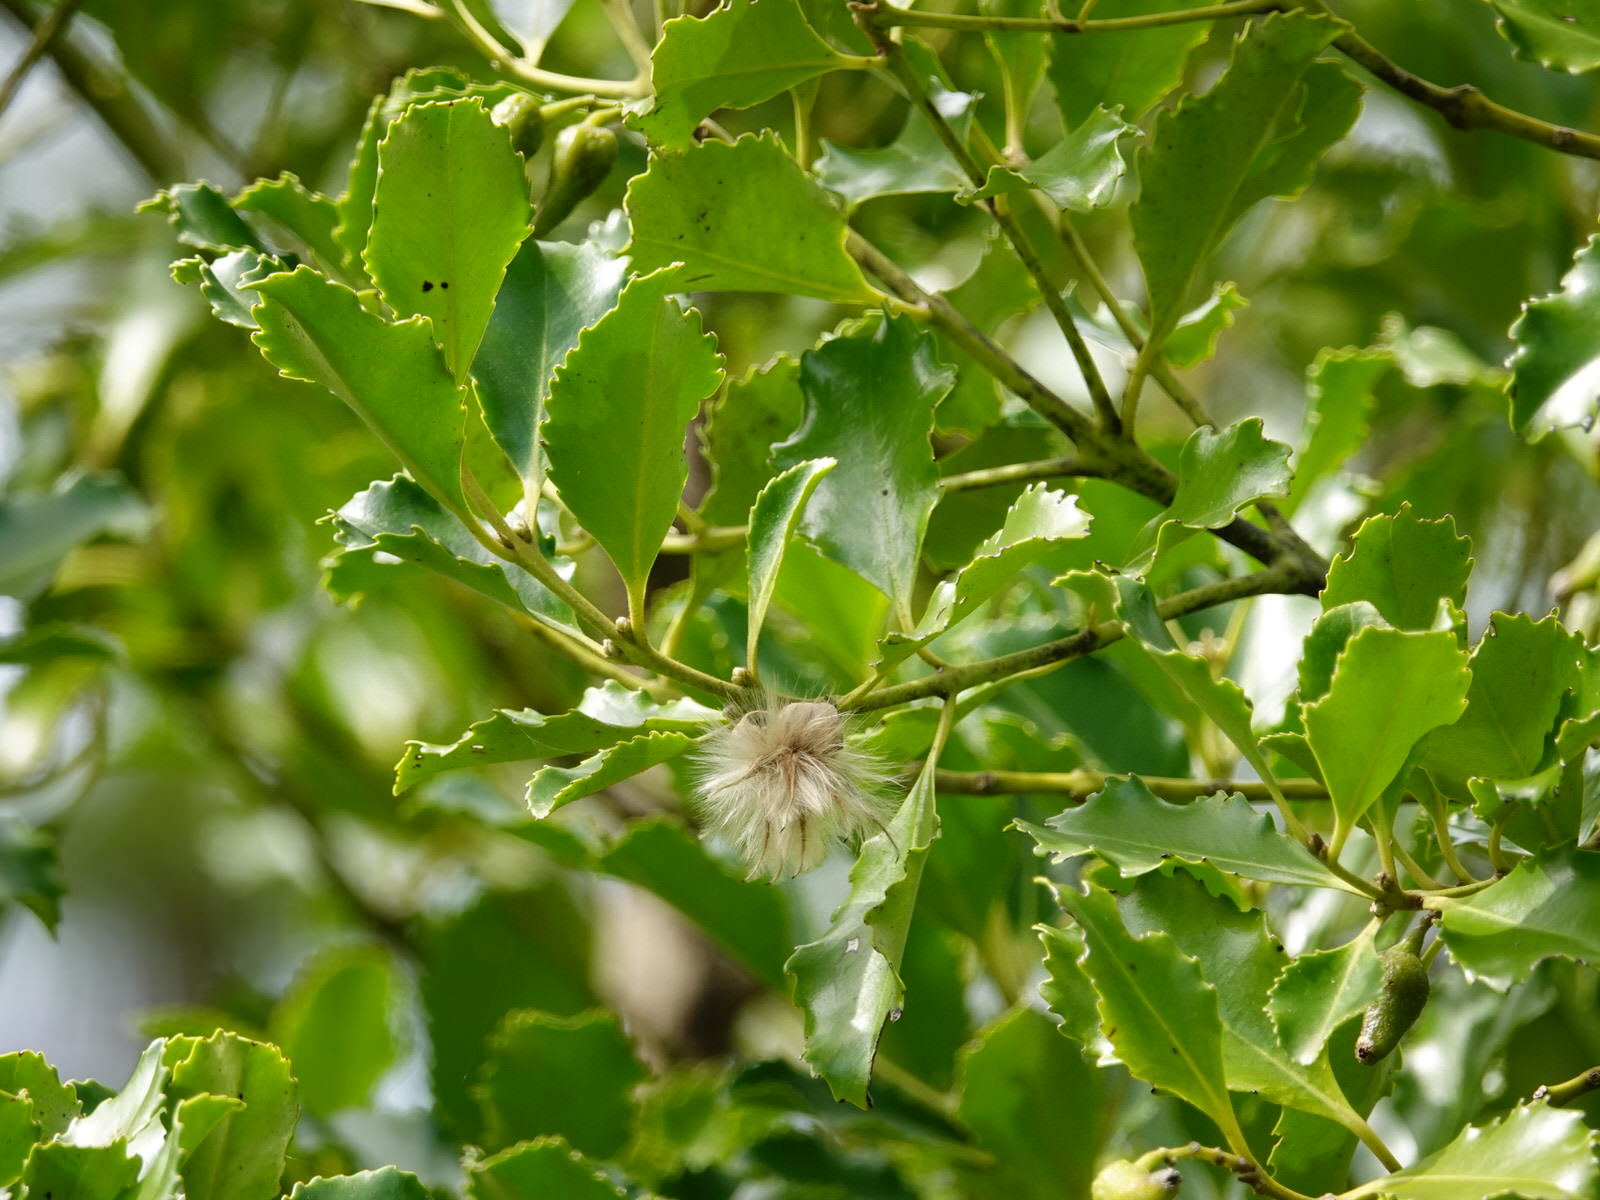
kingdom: Plantae
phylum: Tracheophyta
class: Magnoliopsida
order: Laurales
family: Atherospermataceae
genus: Laurelia
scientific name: Laurelia novae-zelandiae
